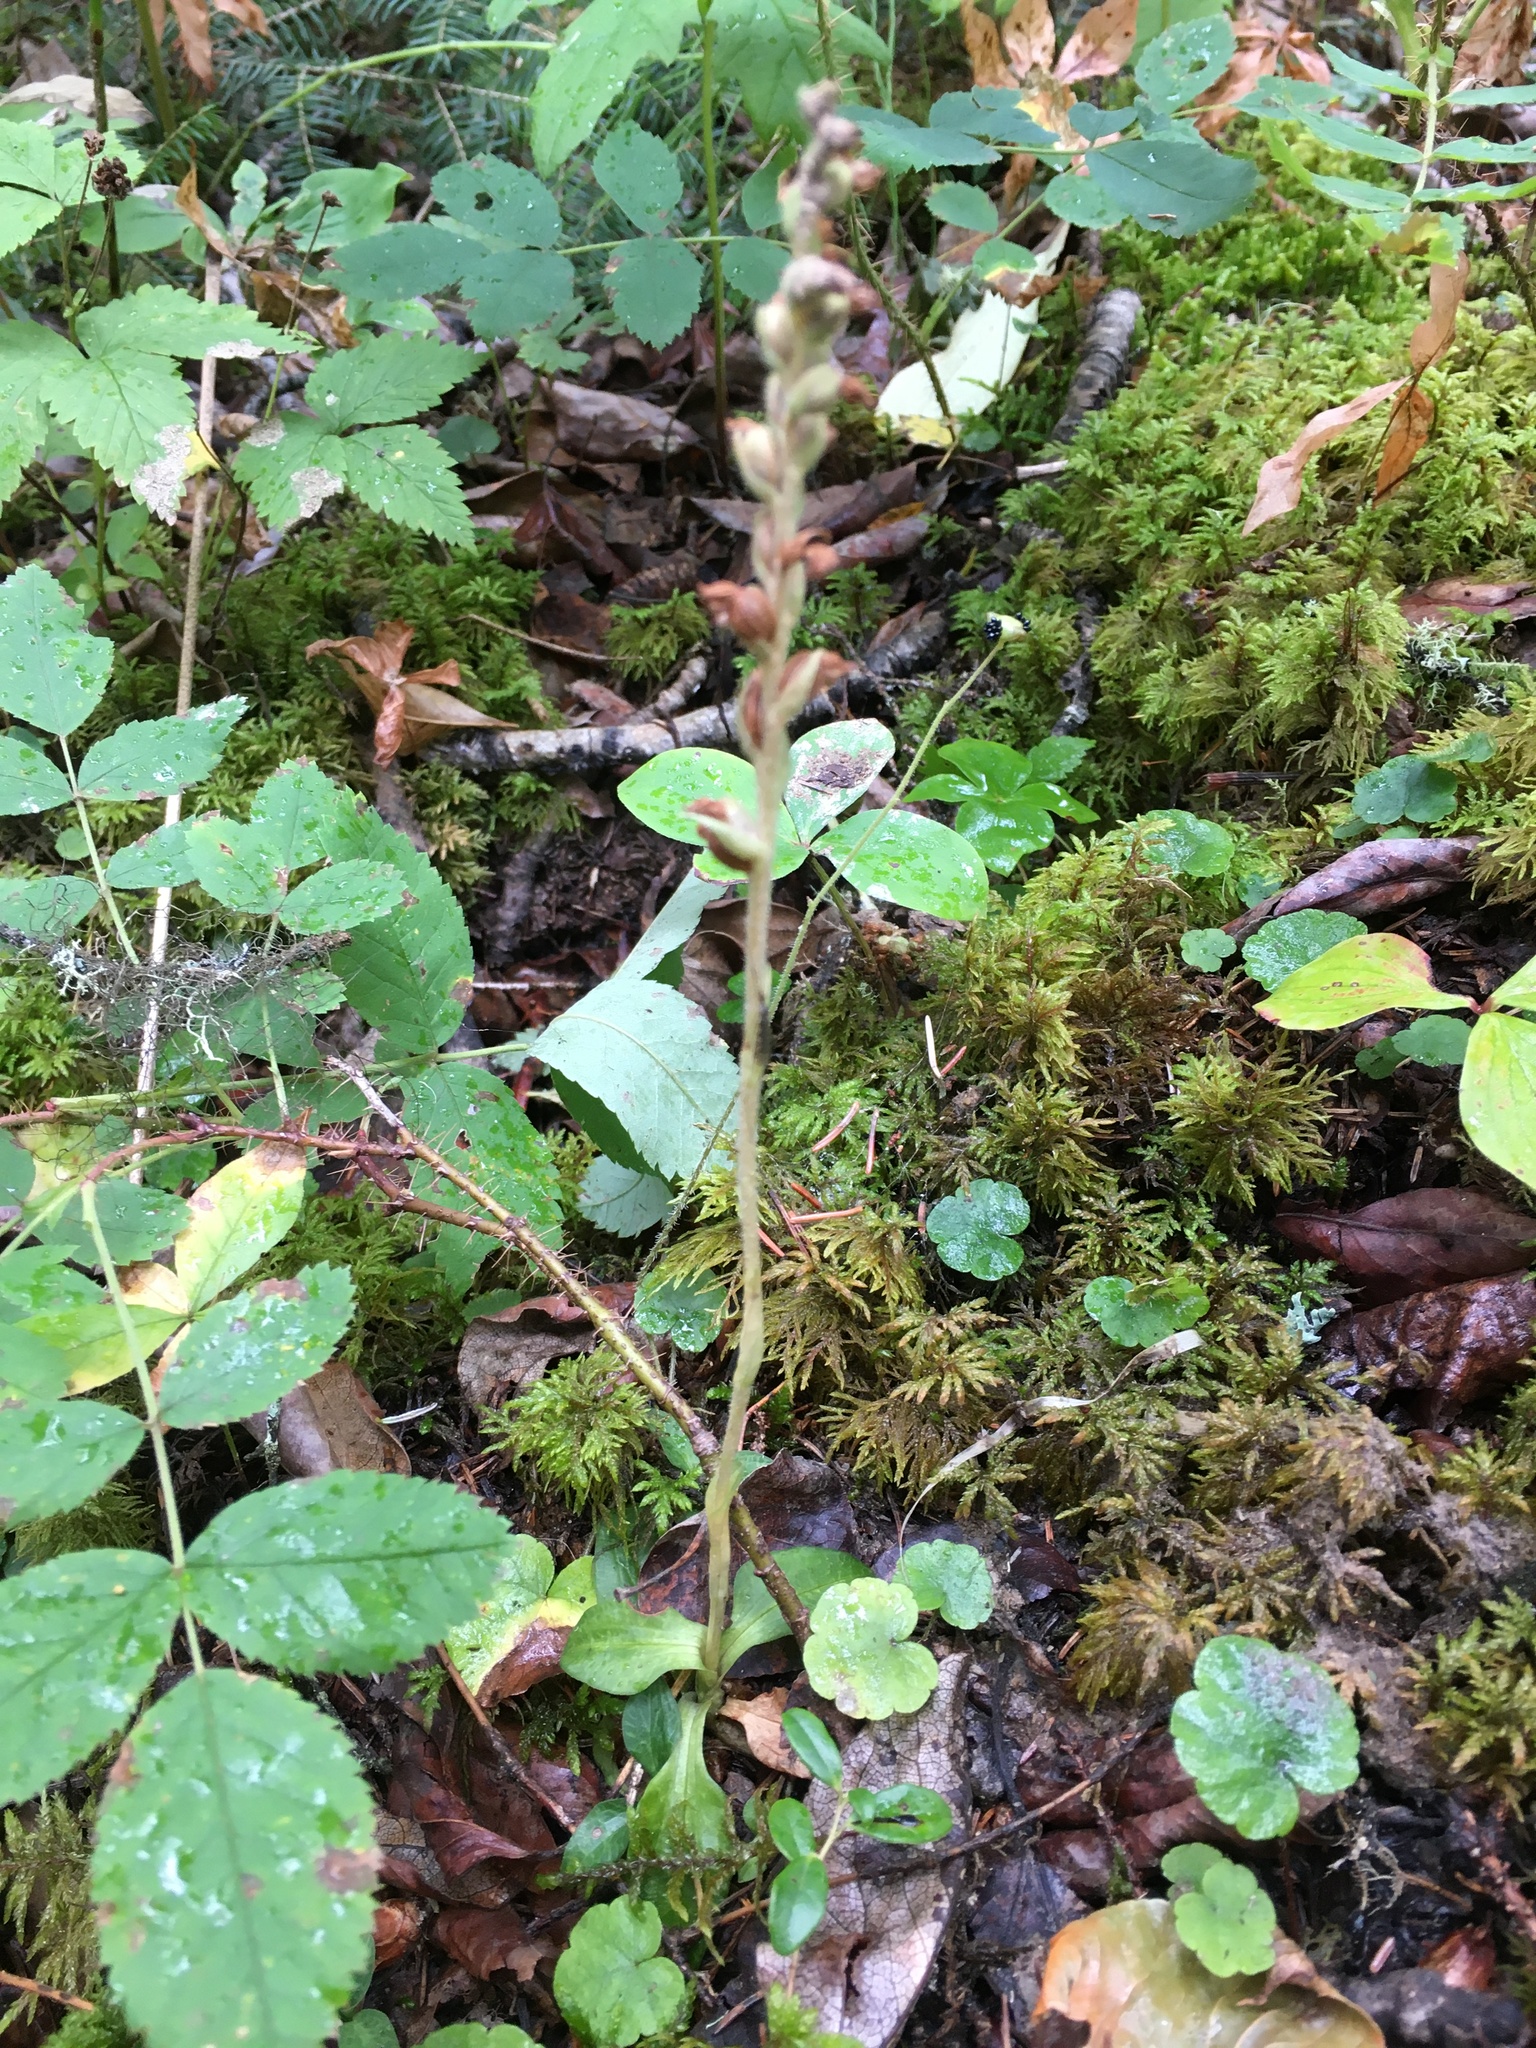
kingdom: Plantae
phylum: Tracheophyta
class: Liliopsida
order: Asparagales
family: Orchidaceae
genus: Goodyera
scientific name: Goodyera repens
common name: Creeping lady's-tresses
